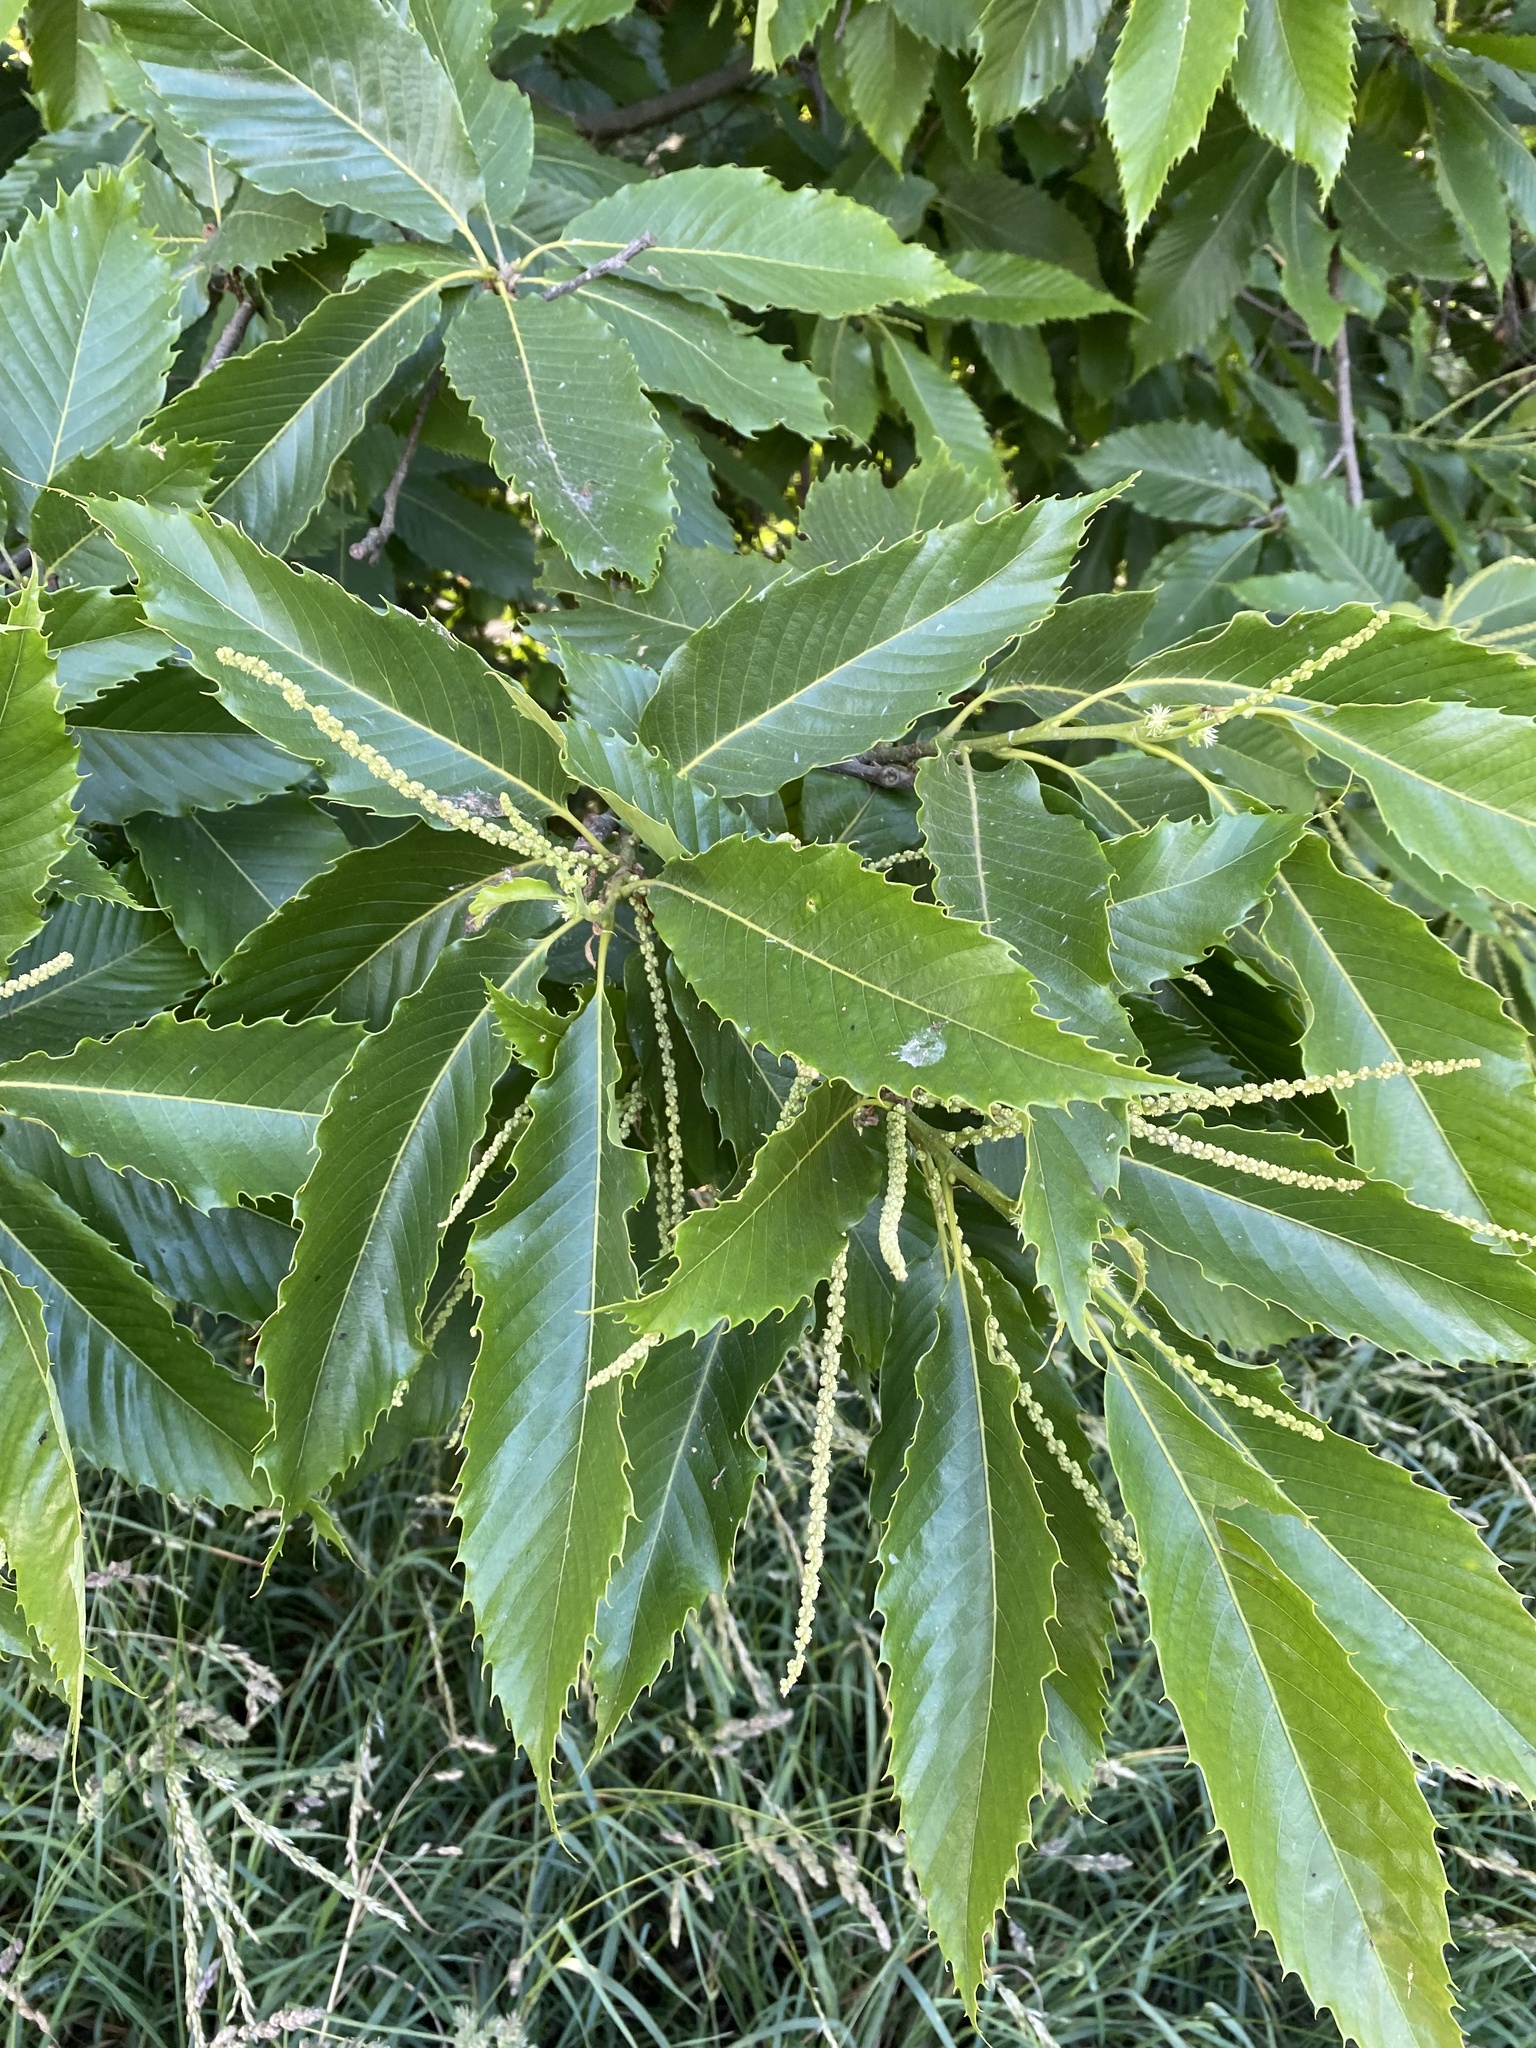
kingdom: Plantae
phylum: Tracheophyta
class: Magnoliopsida
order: Fagales
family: Fagaceae
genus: Castanea
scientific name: Castanea sativa
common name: Sweet chestnut
